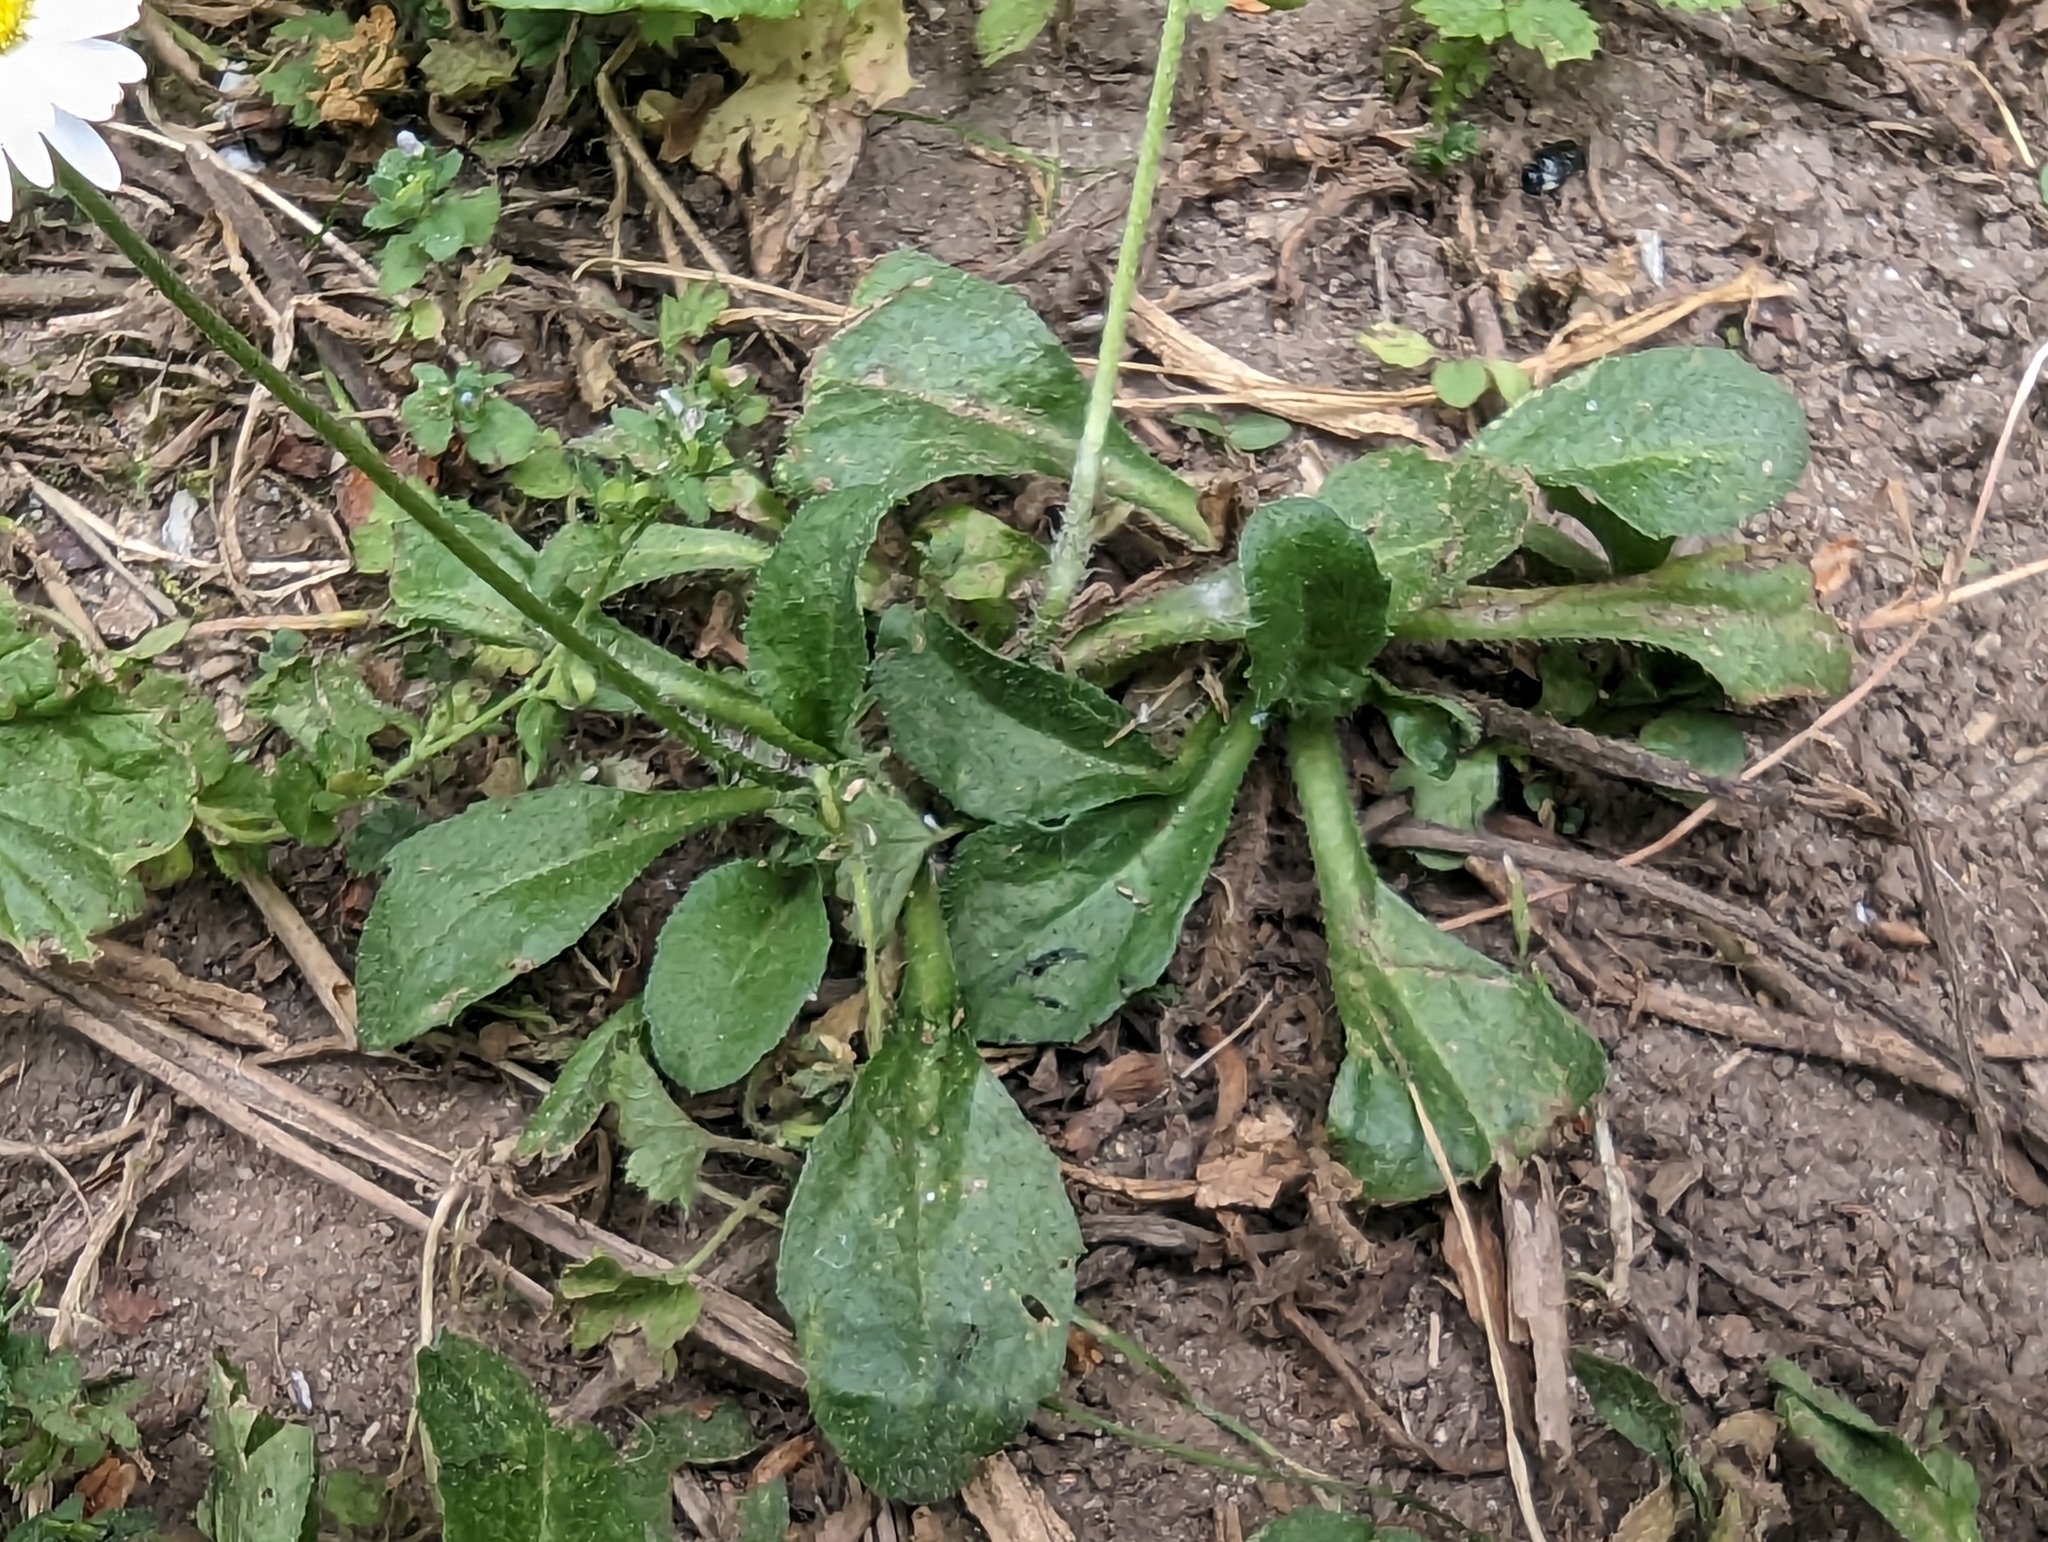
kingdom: Plantae
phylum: Tracheophyta
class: Magnoliopsida
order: Asterales
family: Asteraceae
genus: Bellis
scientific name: Bellis perennis
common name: Lawndaisy
